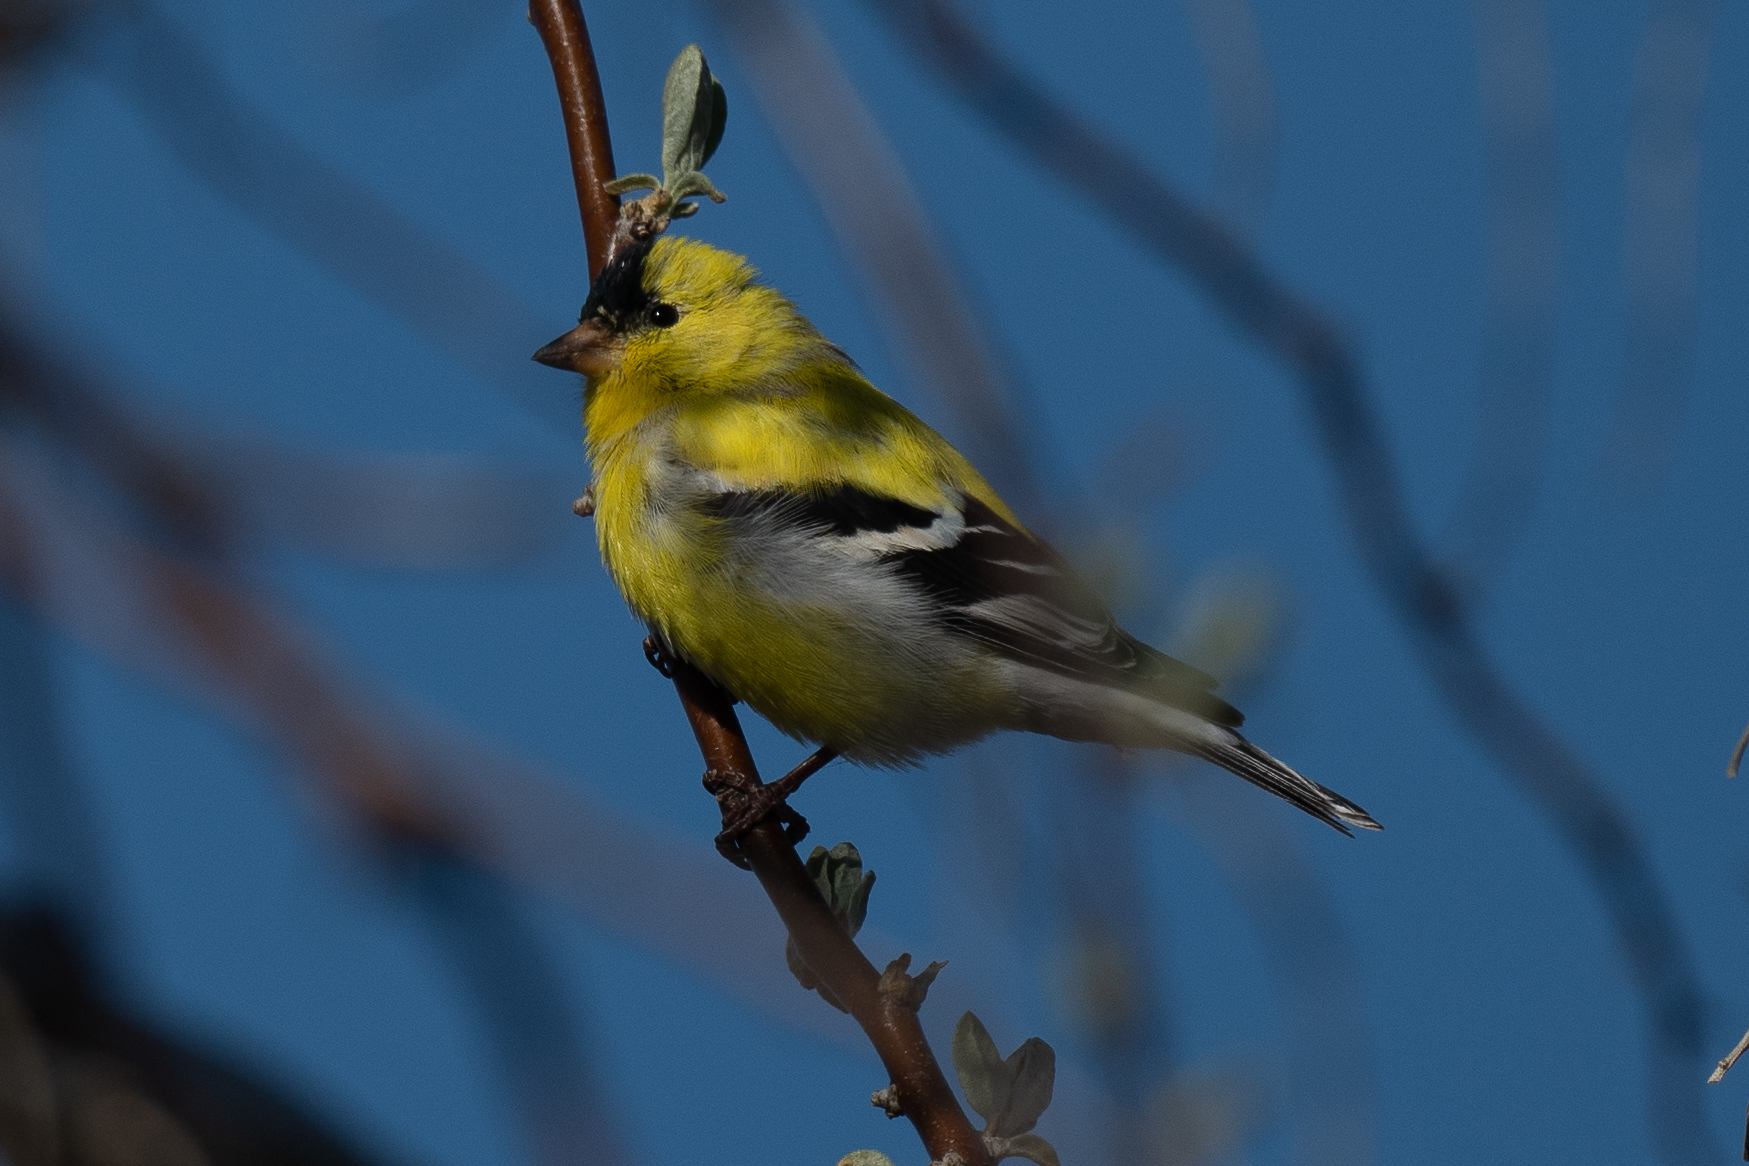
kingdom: Animalia
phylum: Chordata
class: Aves
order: Passeriformes
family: Fringillidae
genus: Spinus
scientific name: Spinus tristis
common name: American goldfinch
